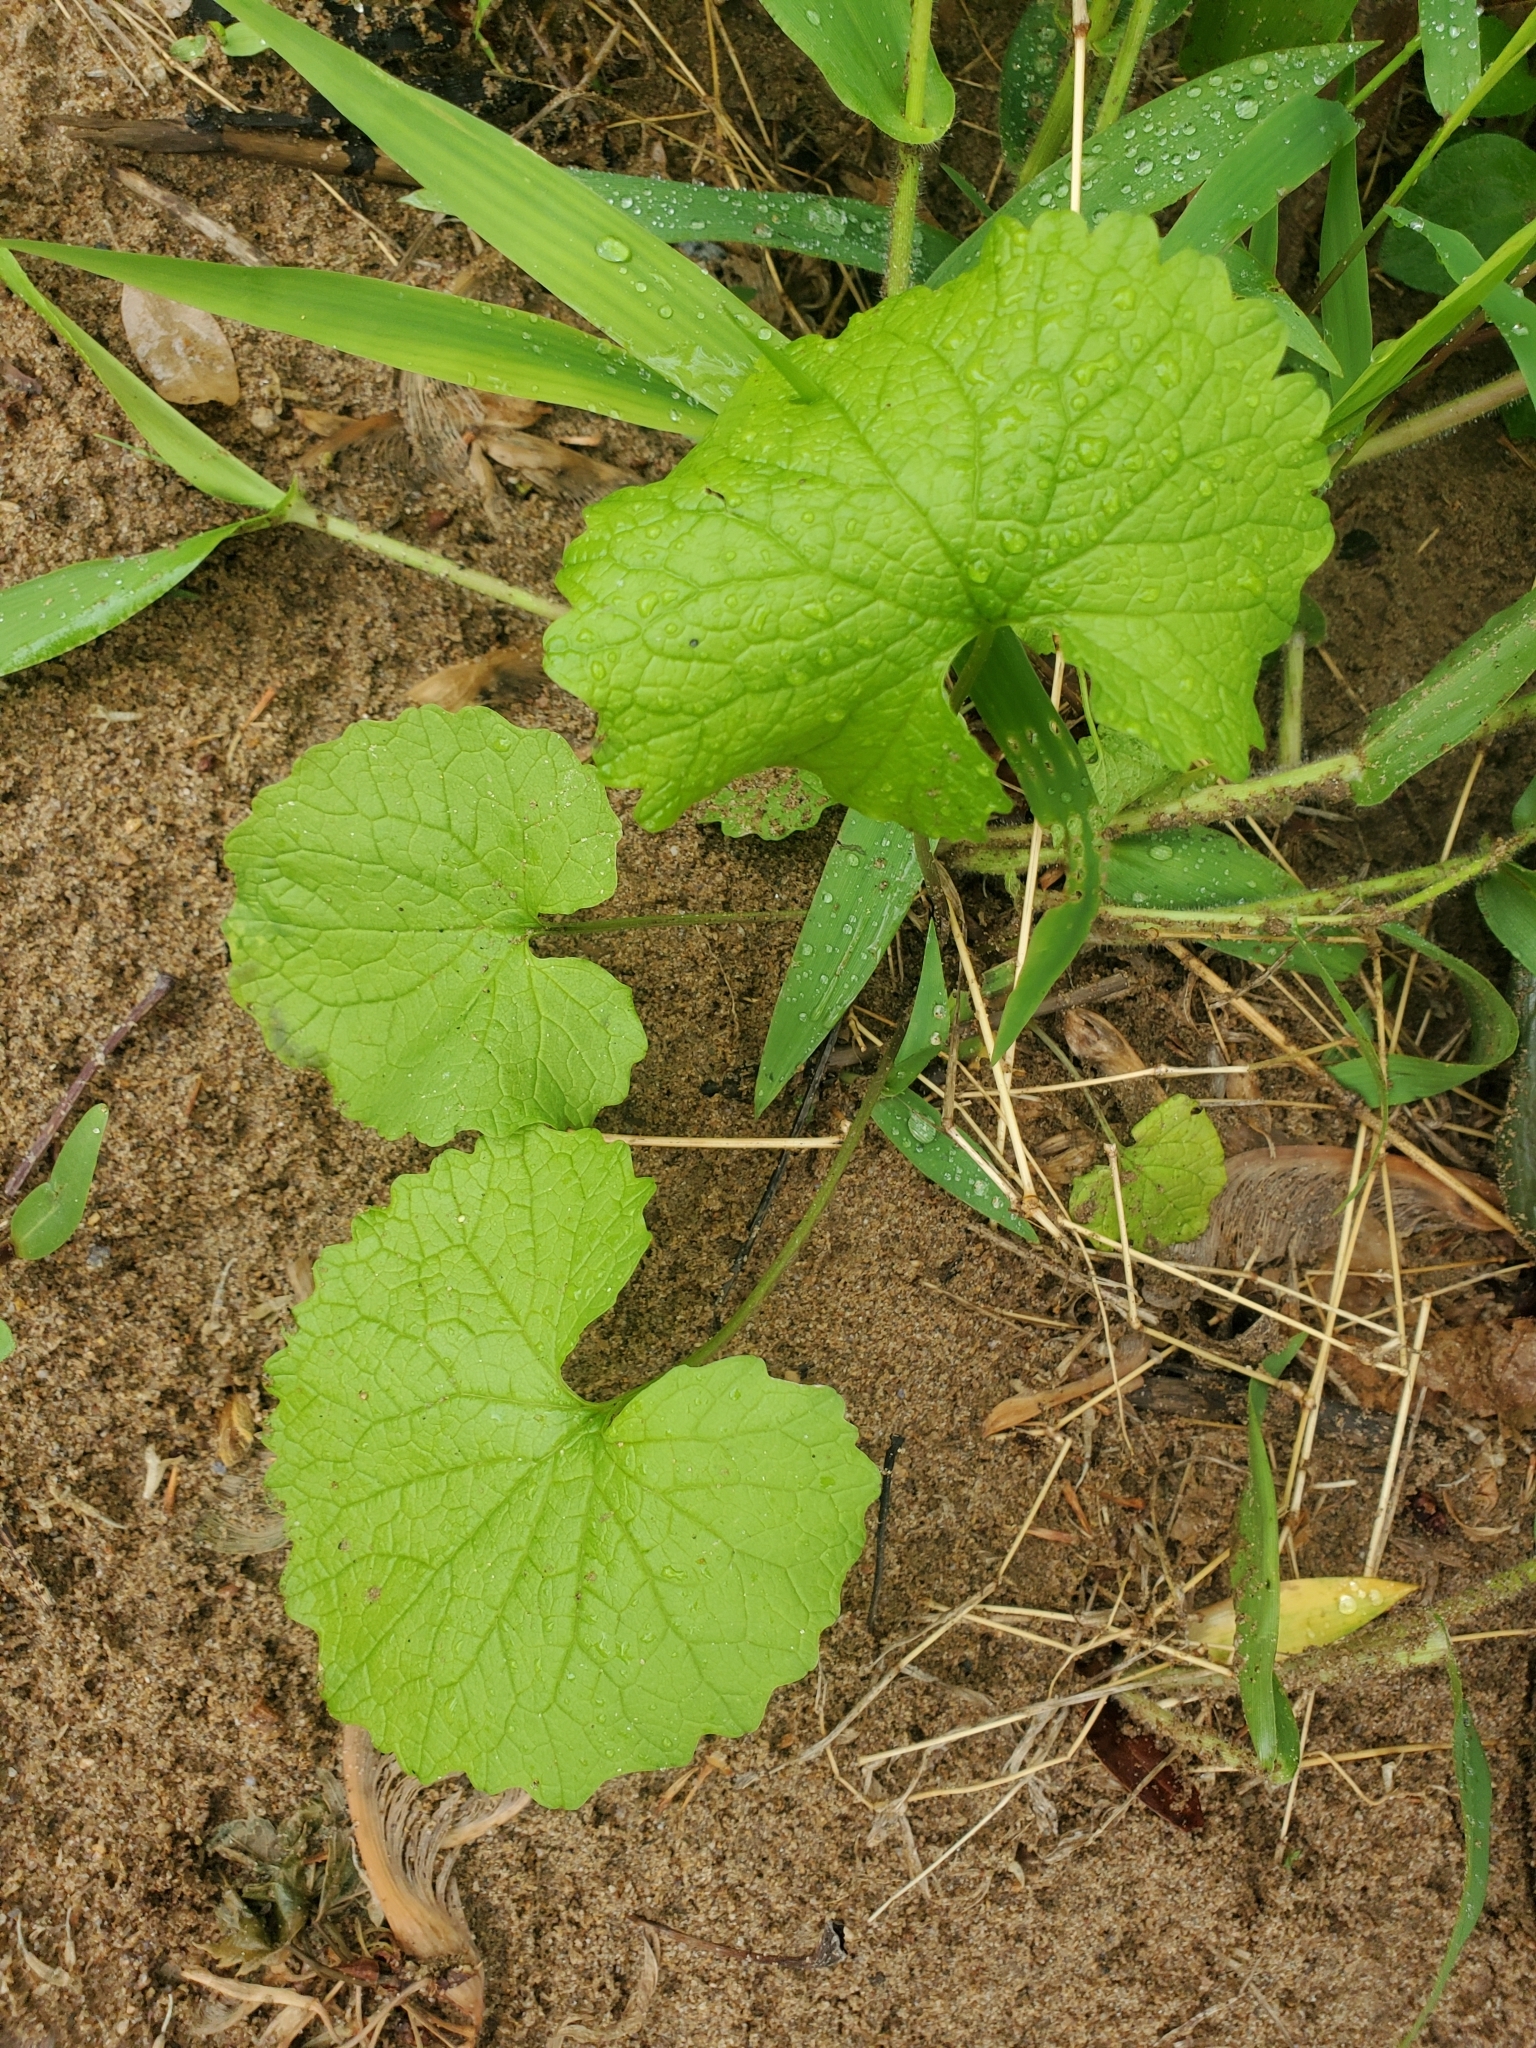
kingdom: Plantae
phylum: Tracheophyta
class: Magnoliopsida
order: Brassicales
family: Brassicaceae
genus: Alliaria
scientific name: Alliaria petiolata
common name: Garlic mustard
